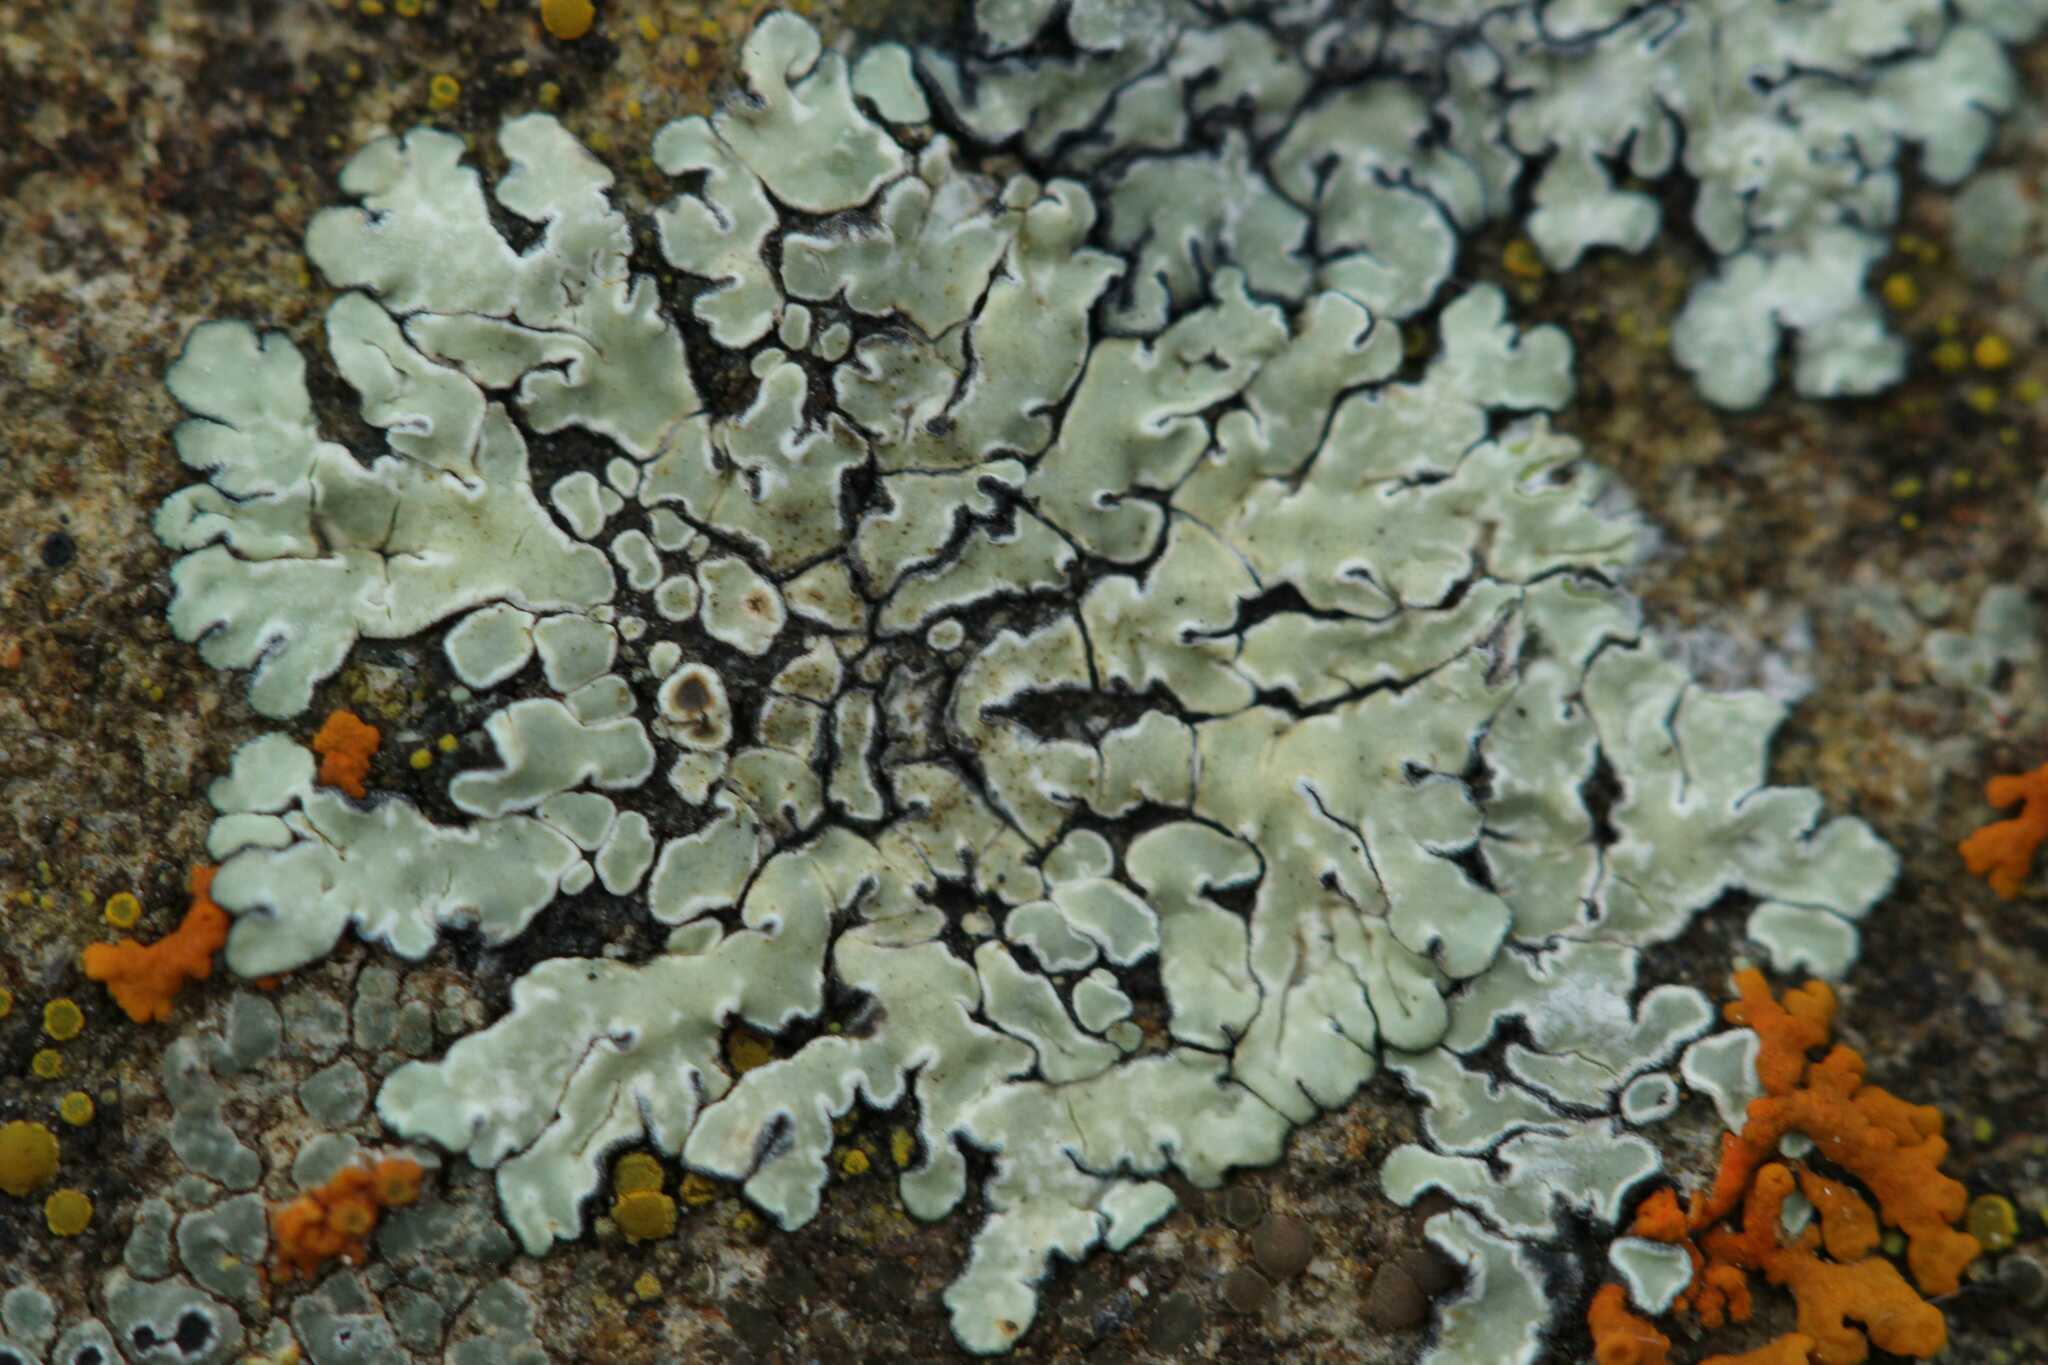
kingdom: Fungi
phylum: Ascomycota
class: Lecanoromycetes
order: Lecanorales
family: Lecanoraceae
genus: Protoparmeliopsis
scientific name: Protoparmeliopsis muralis
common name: Stonewall rim lichen
